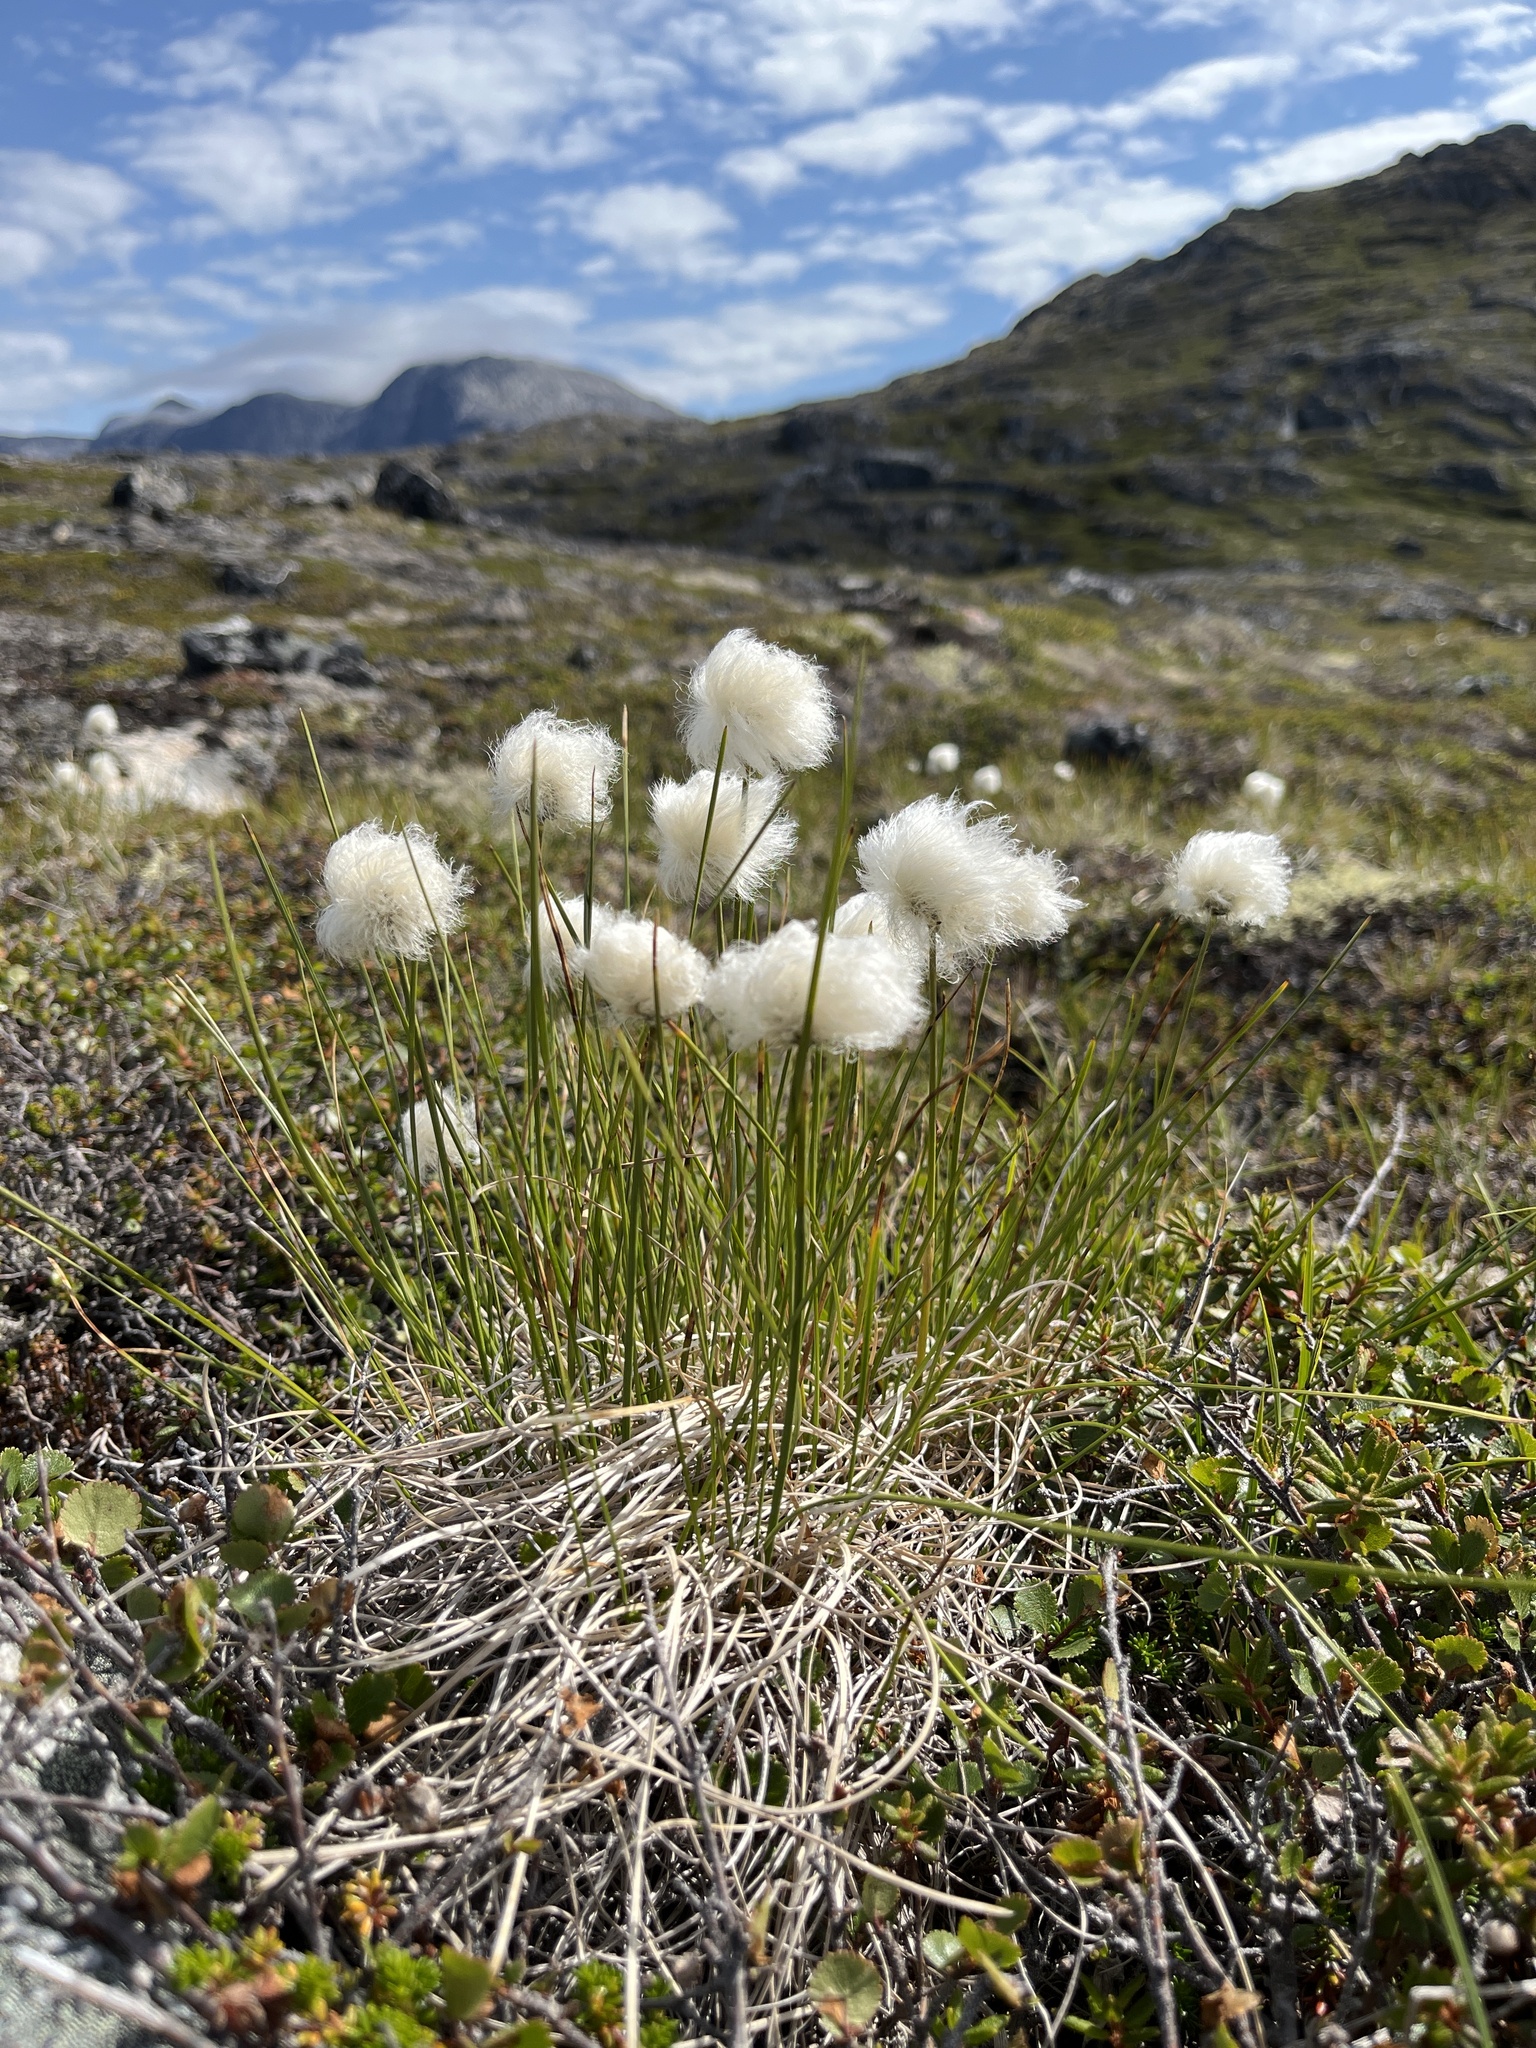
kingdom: Plantae
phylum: Tracheophyta
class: Liliopsida
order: Poales
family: Cyperaceae
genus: Eriophorum
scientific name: Eriophorum vaginatum
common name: Hare's-tail cottongrass
